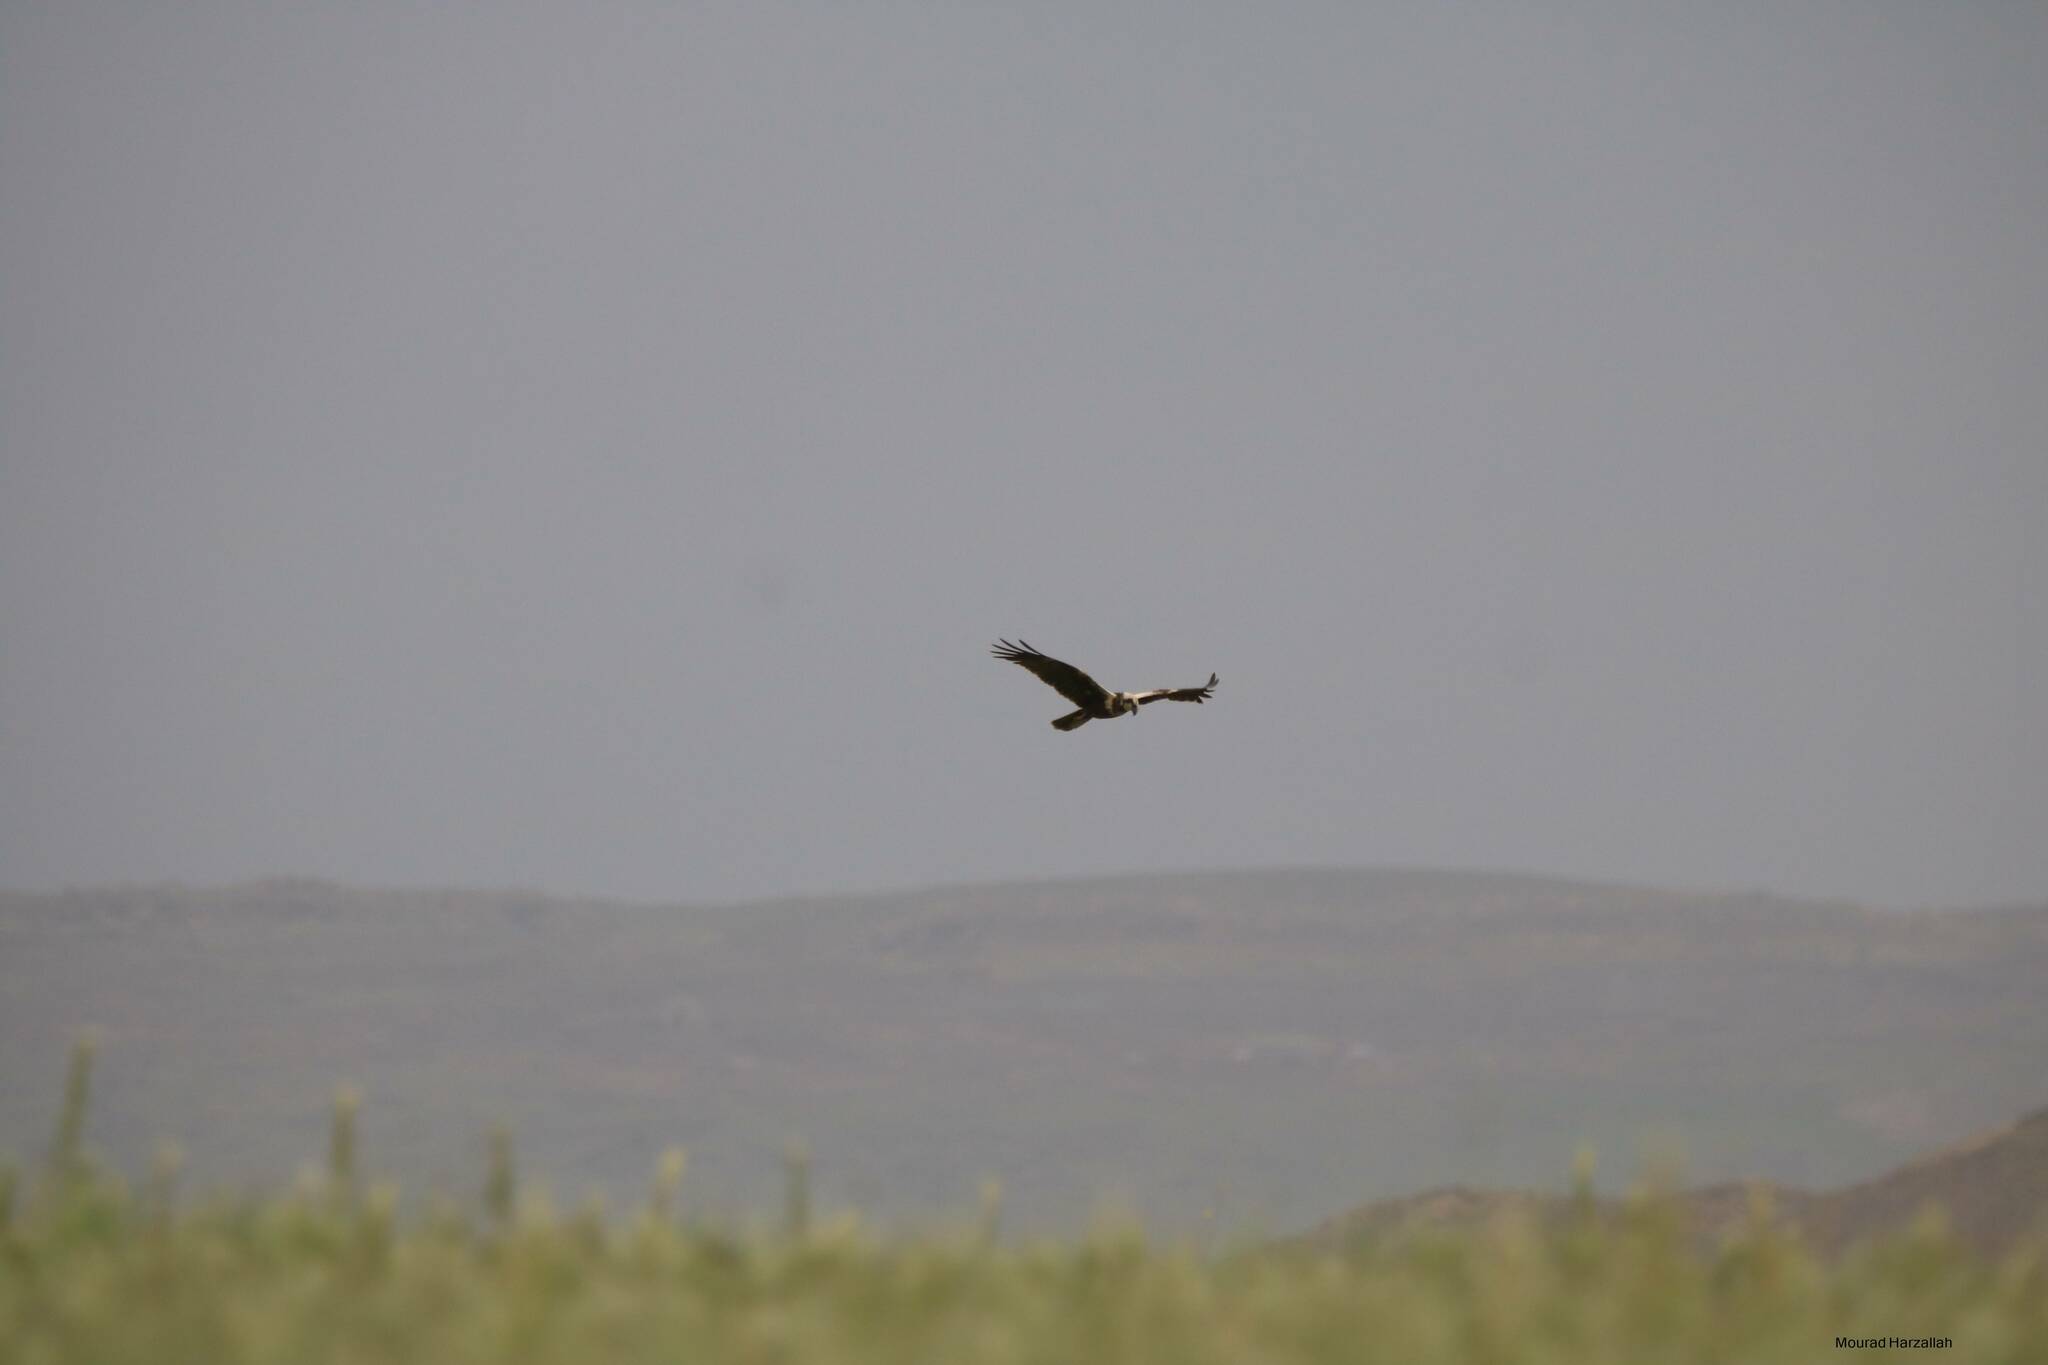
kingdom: Animalia
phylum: Chordata
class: Aves
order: Accipitriformes
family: Accipitridae
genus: Circus
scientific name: Circus aeruginosus
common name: Western marsh harrier
